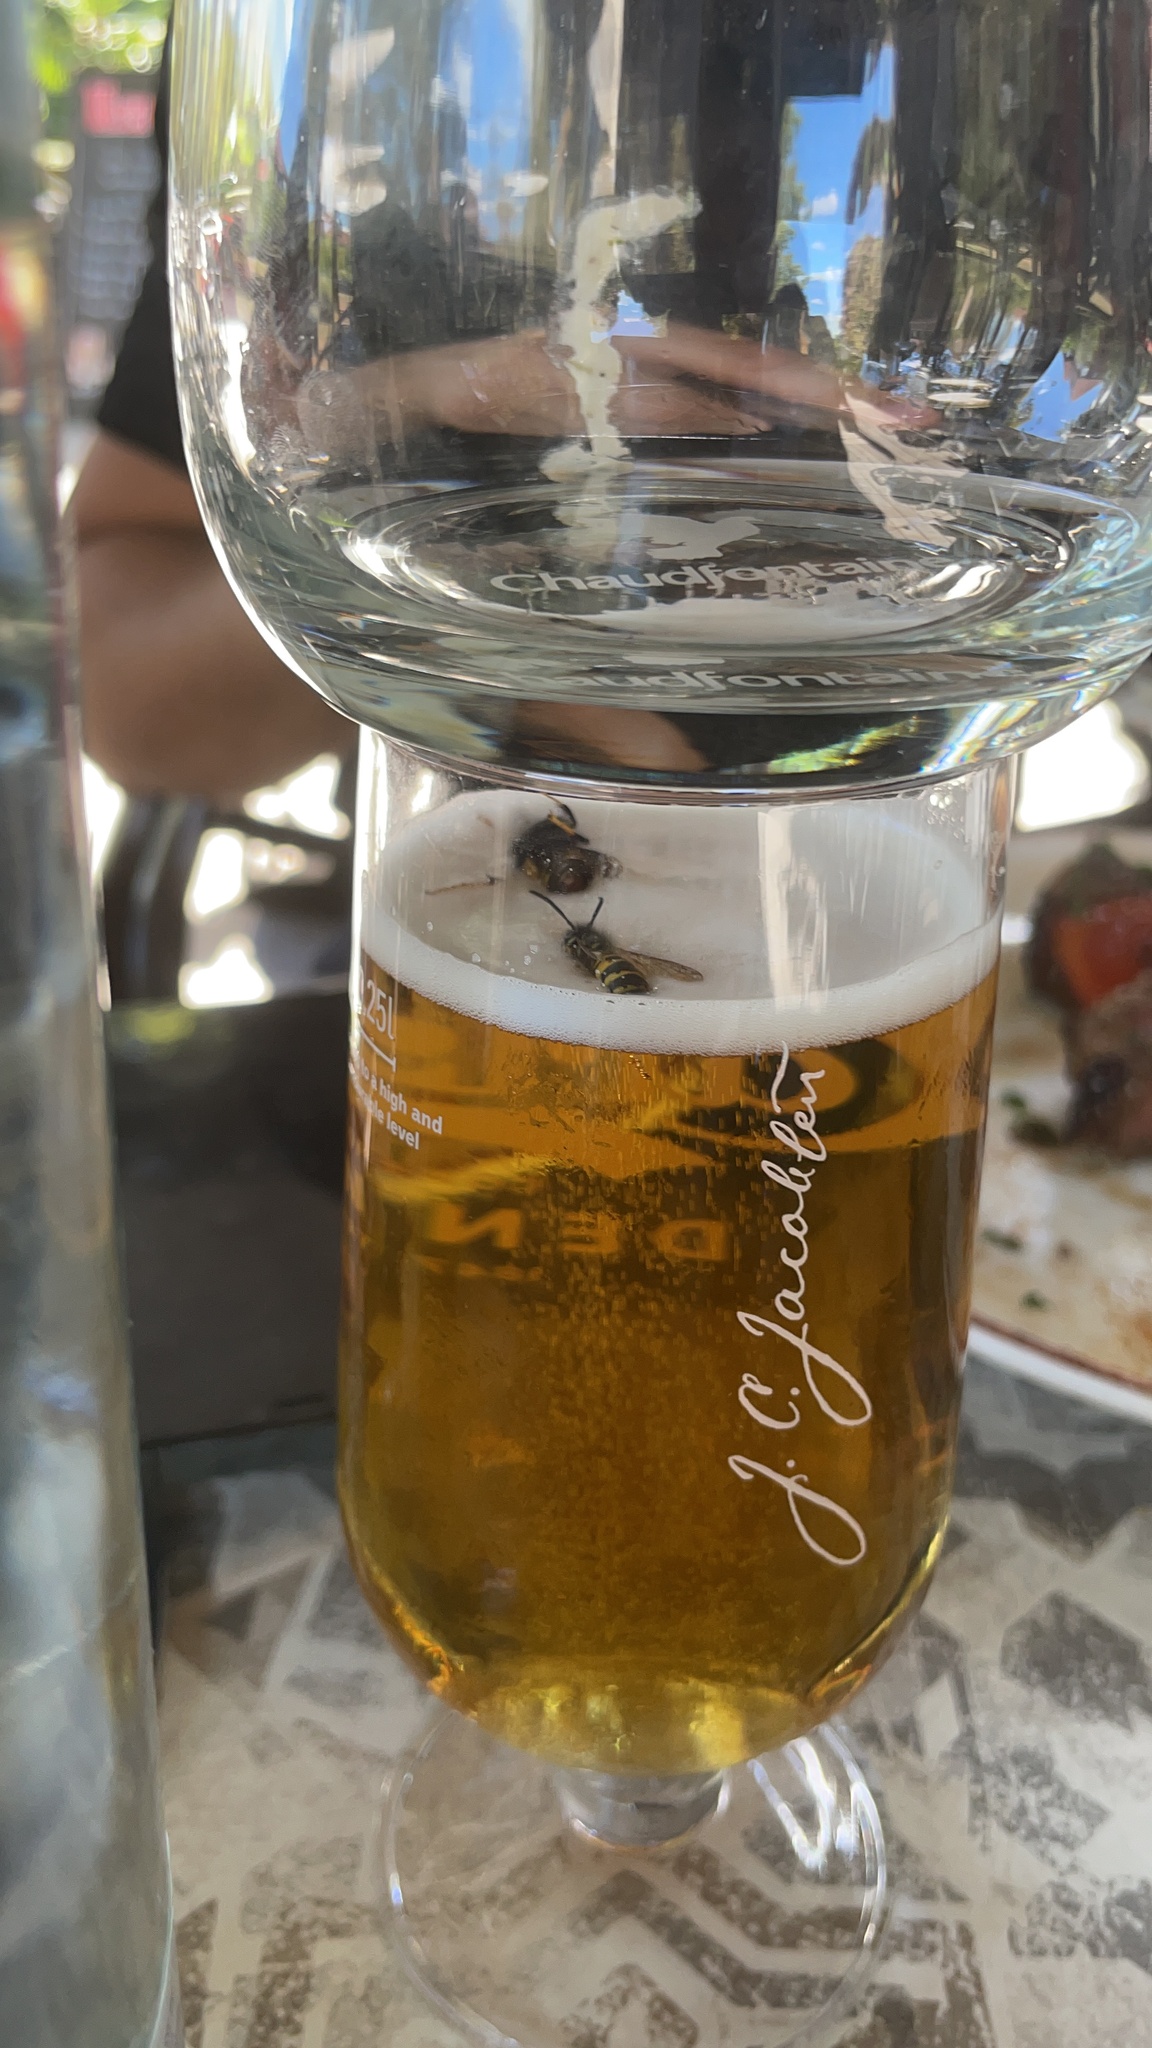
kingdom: Animalia
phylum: Arthropoda
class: Insecta
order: Hymenoptera
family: Vespidae
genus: Vespa
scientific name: Vespa velutina
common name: Asian hornet
